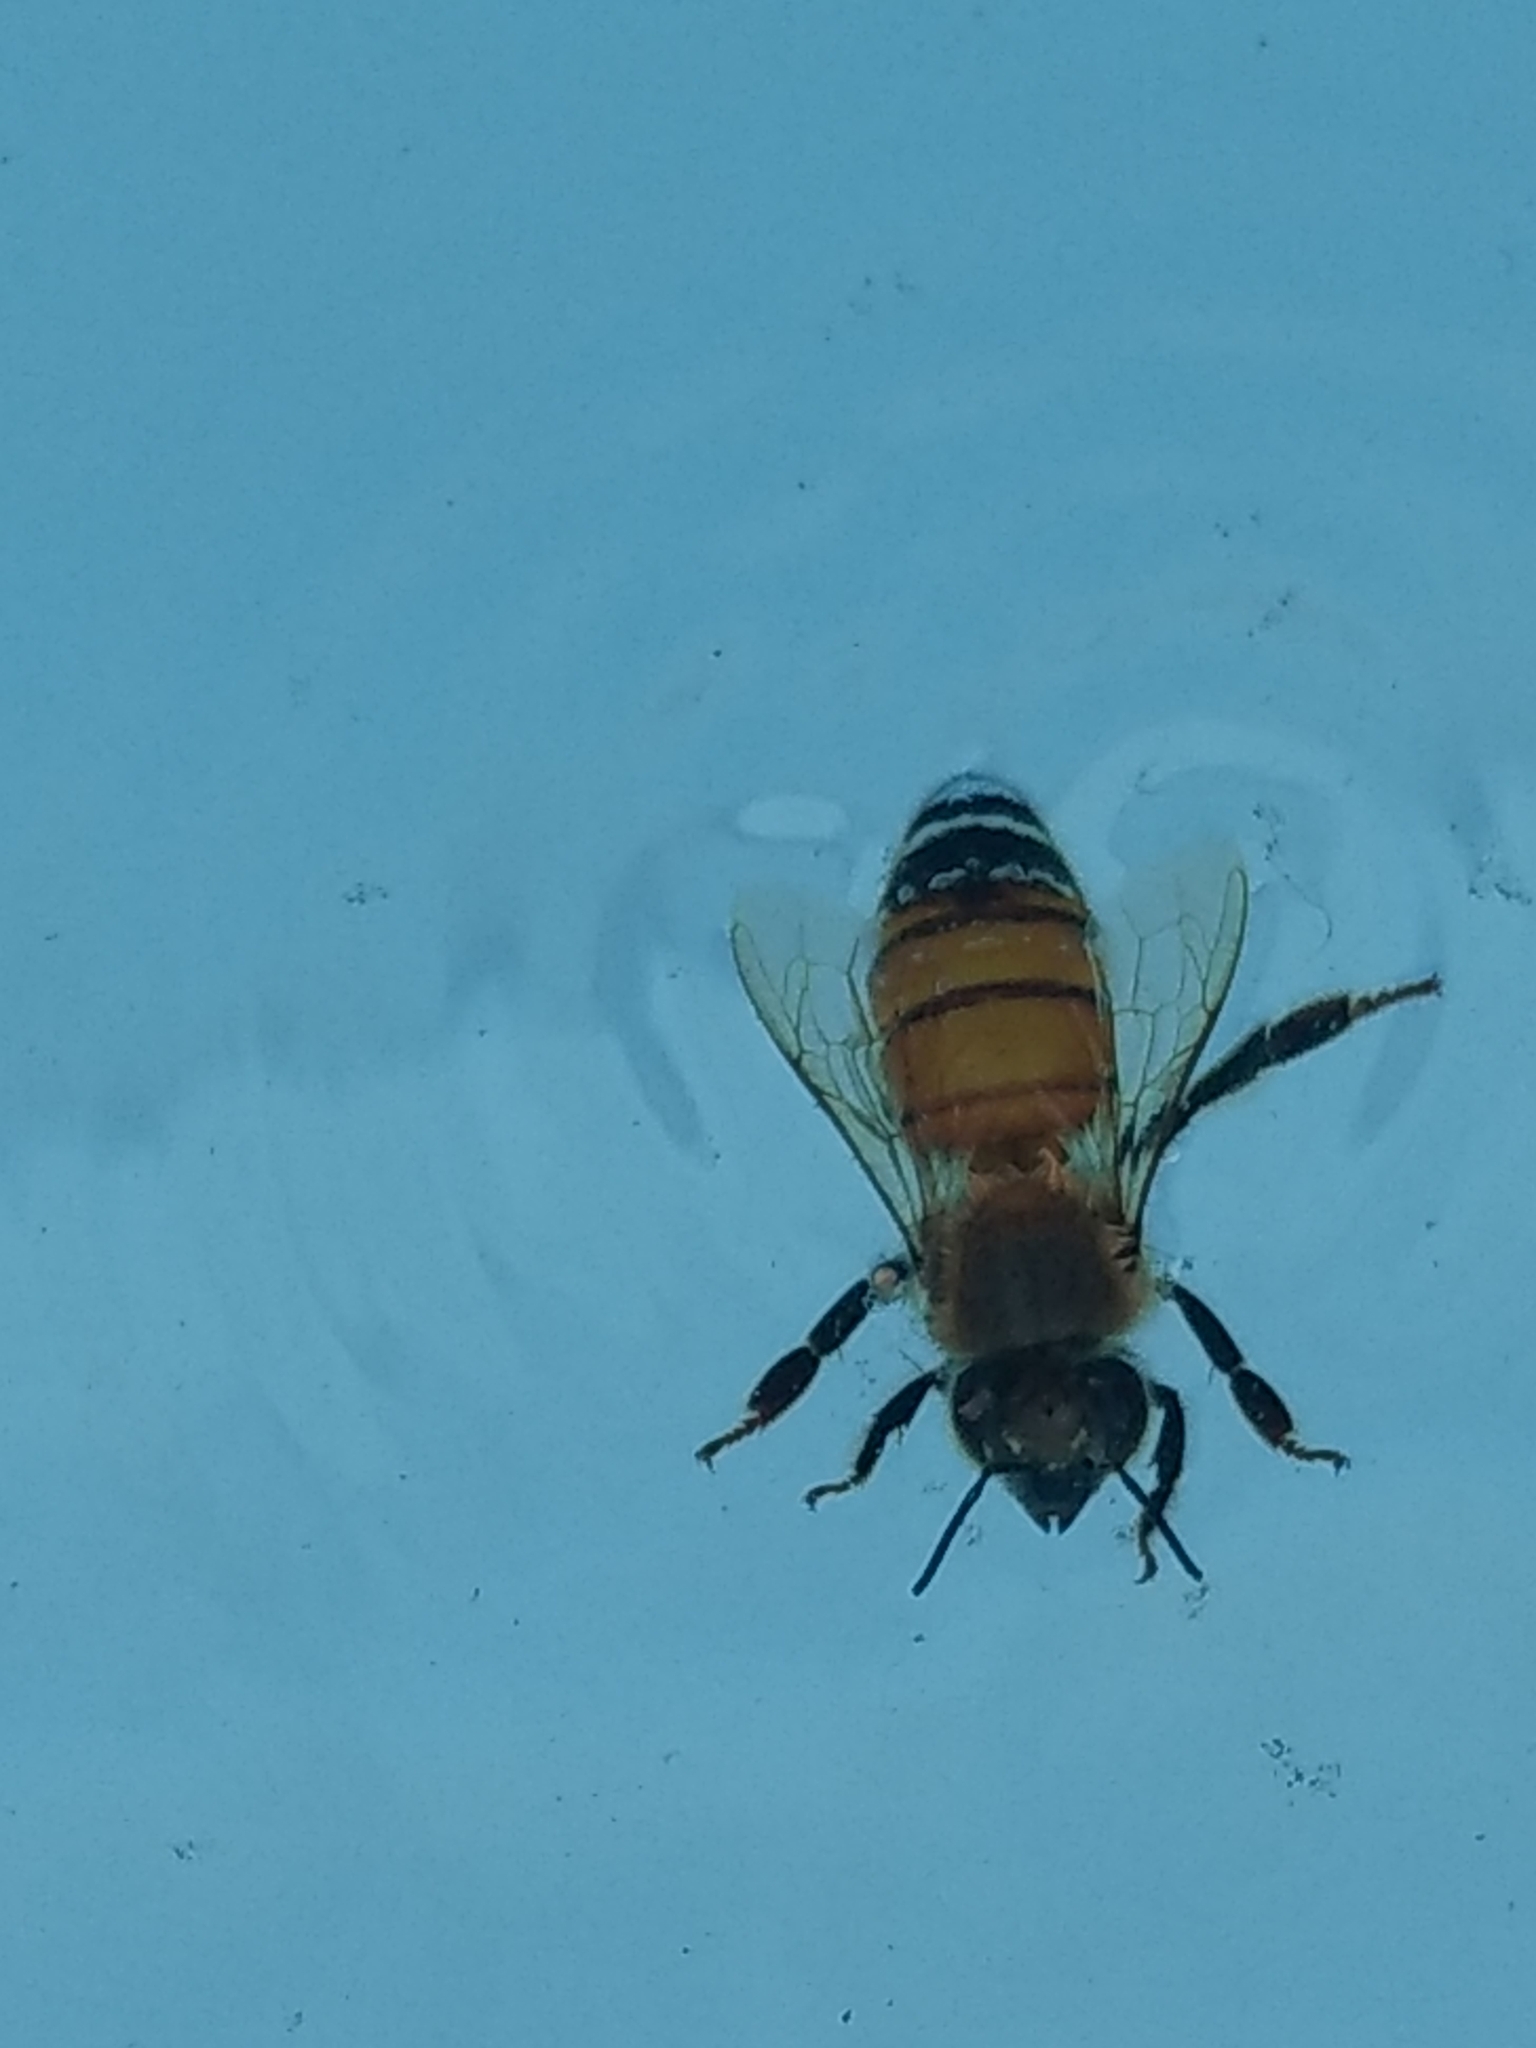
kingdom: Animalia
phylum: Arthropoda
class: Insecta
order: Hymenoptera
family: Apidae
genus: Apis
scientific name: Apis mellifera
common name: Honey bee
